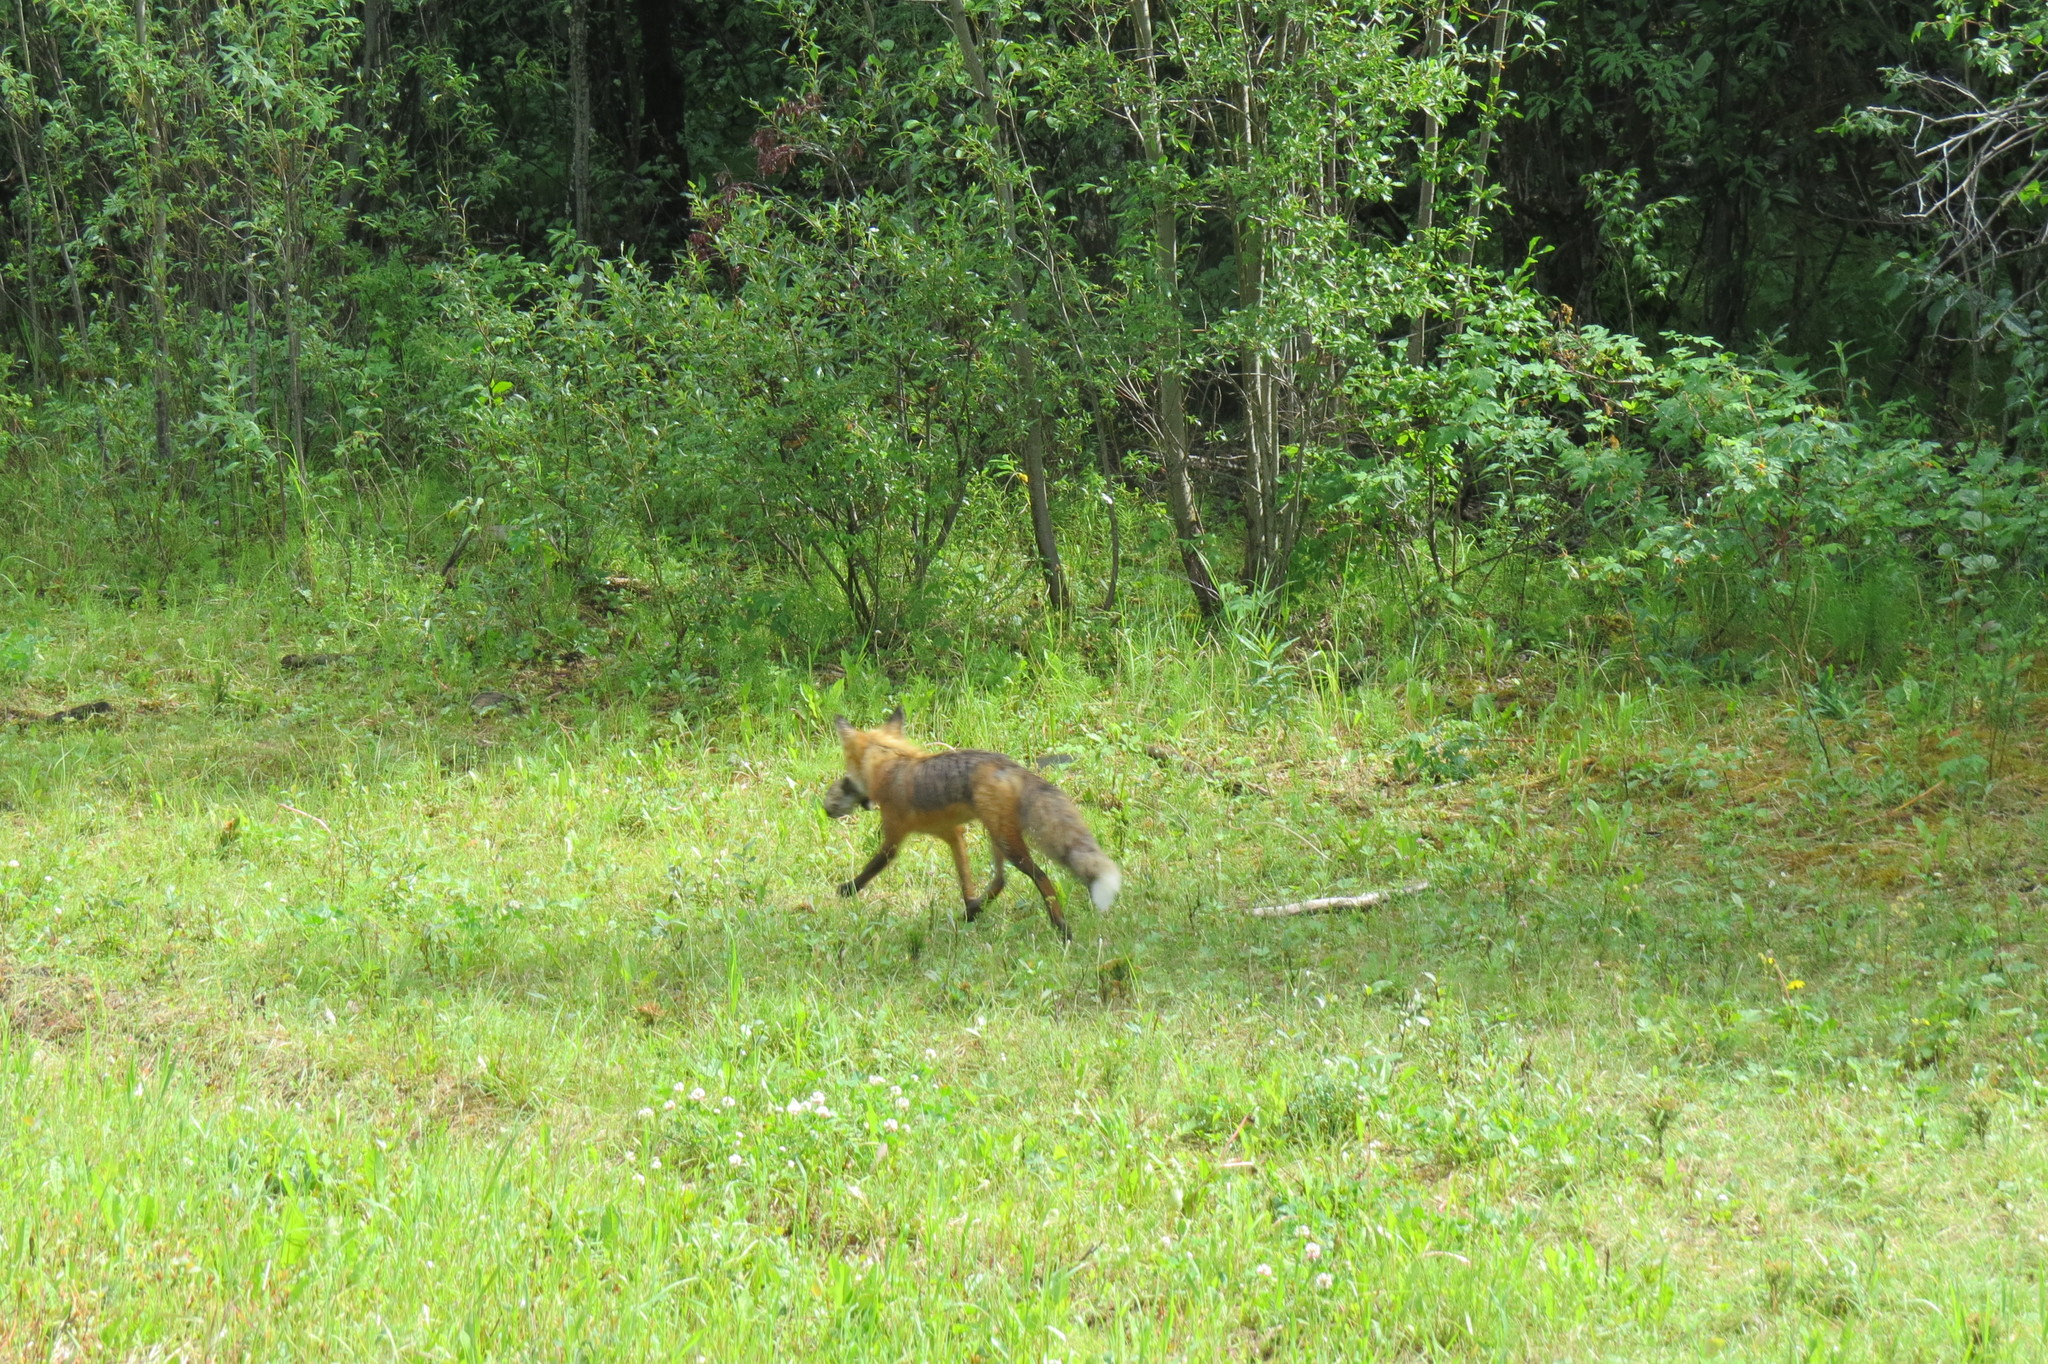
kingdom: Animalia
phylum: Chordata
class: Mammalia
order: Carnivora
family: Canidae
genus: Vulpes
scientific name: Vulpes vulpes
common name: Red fox
